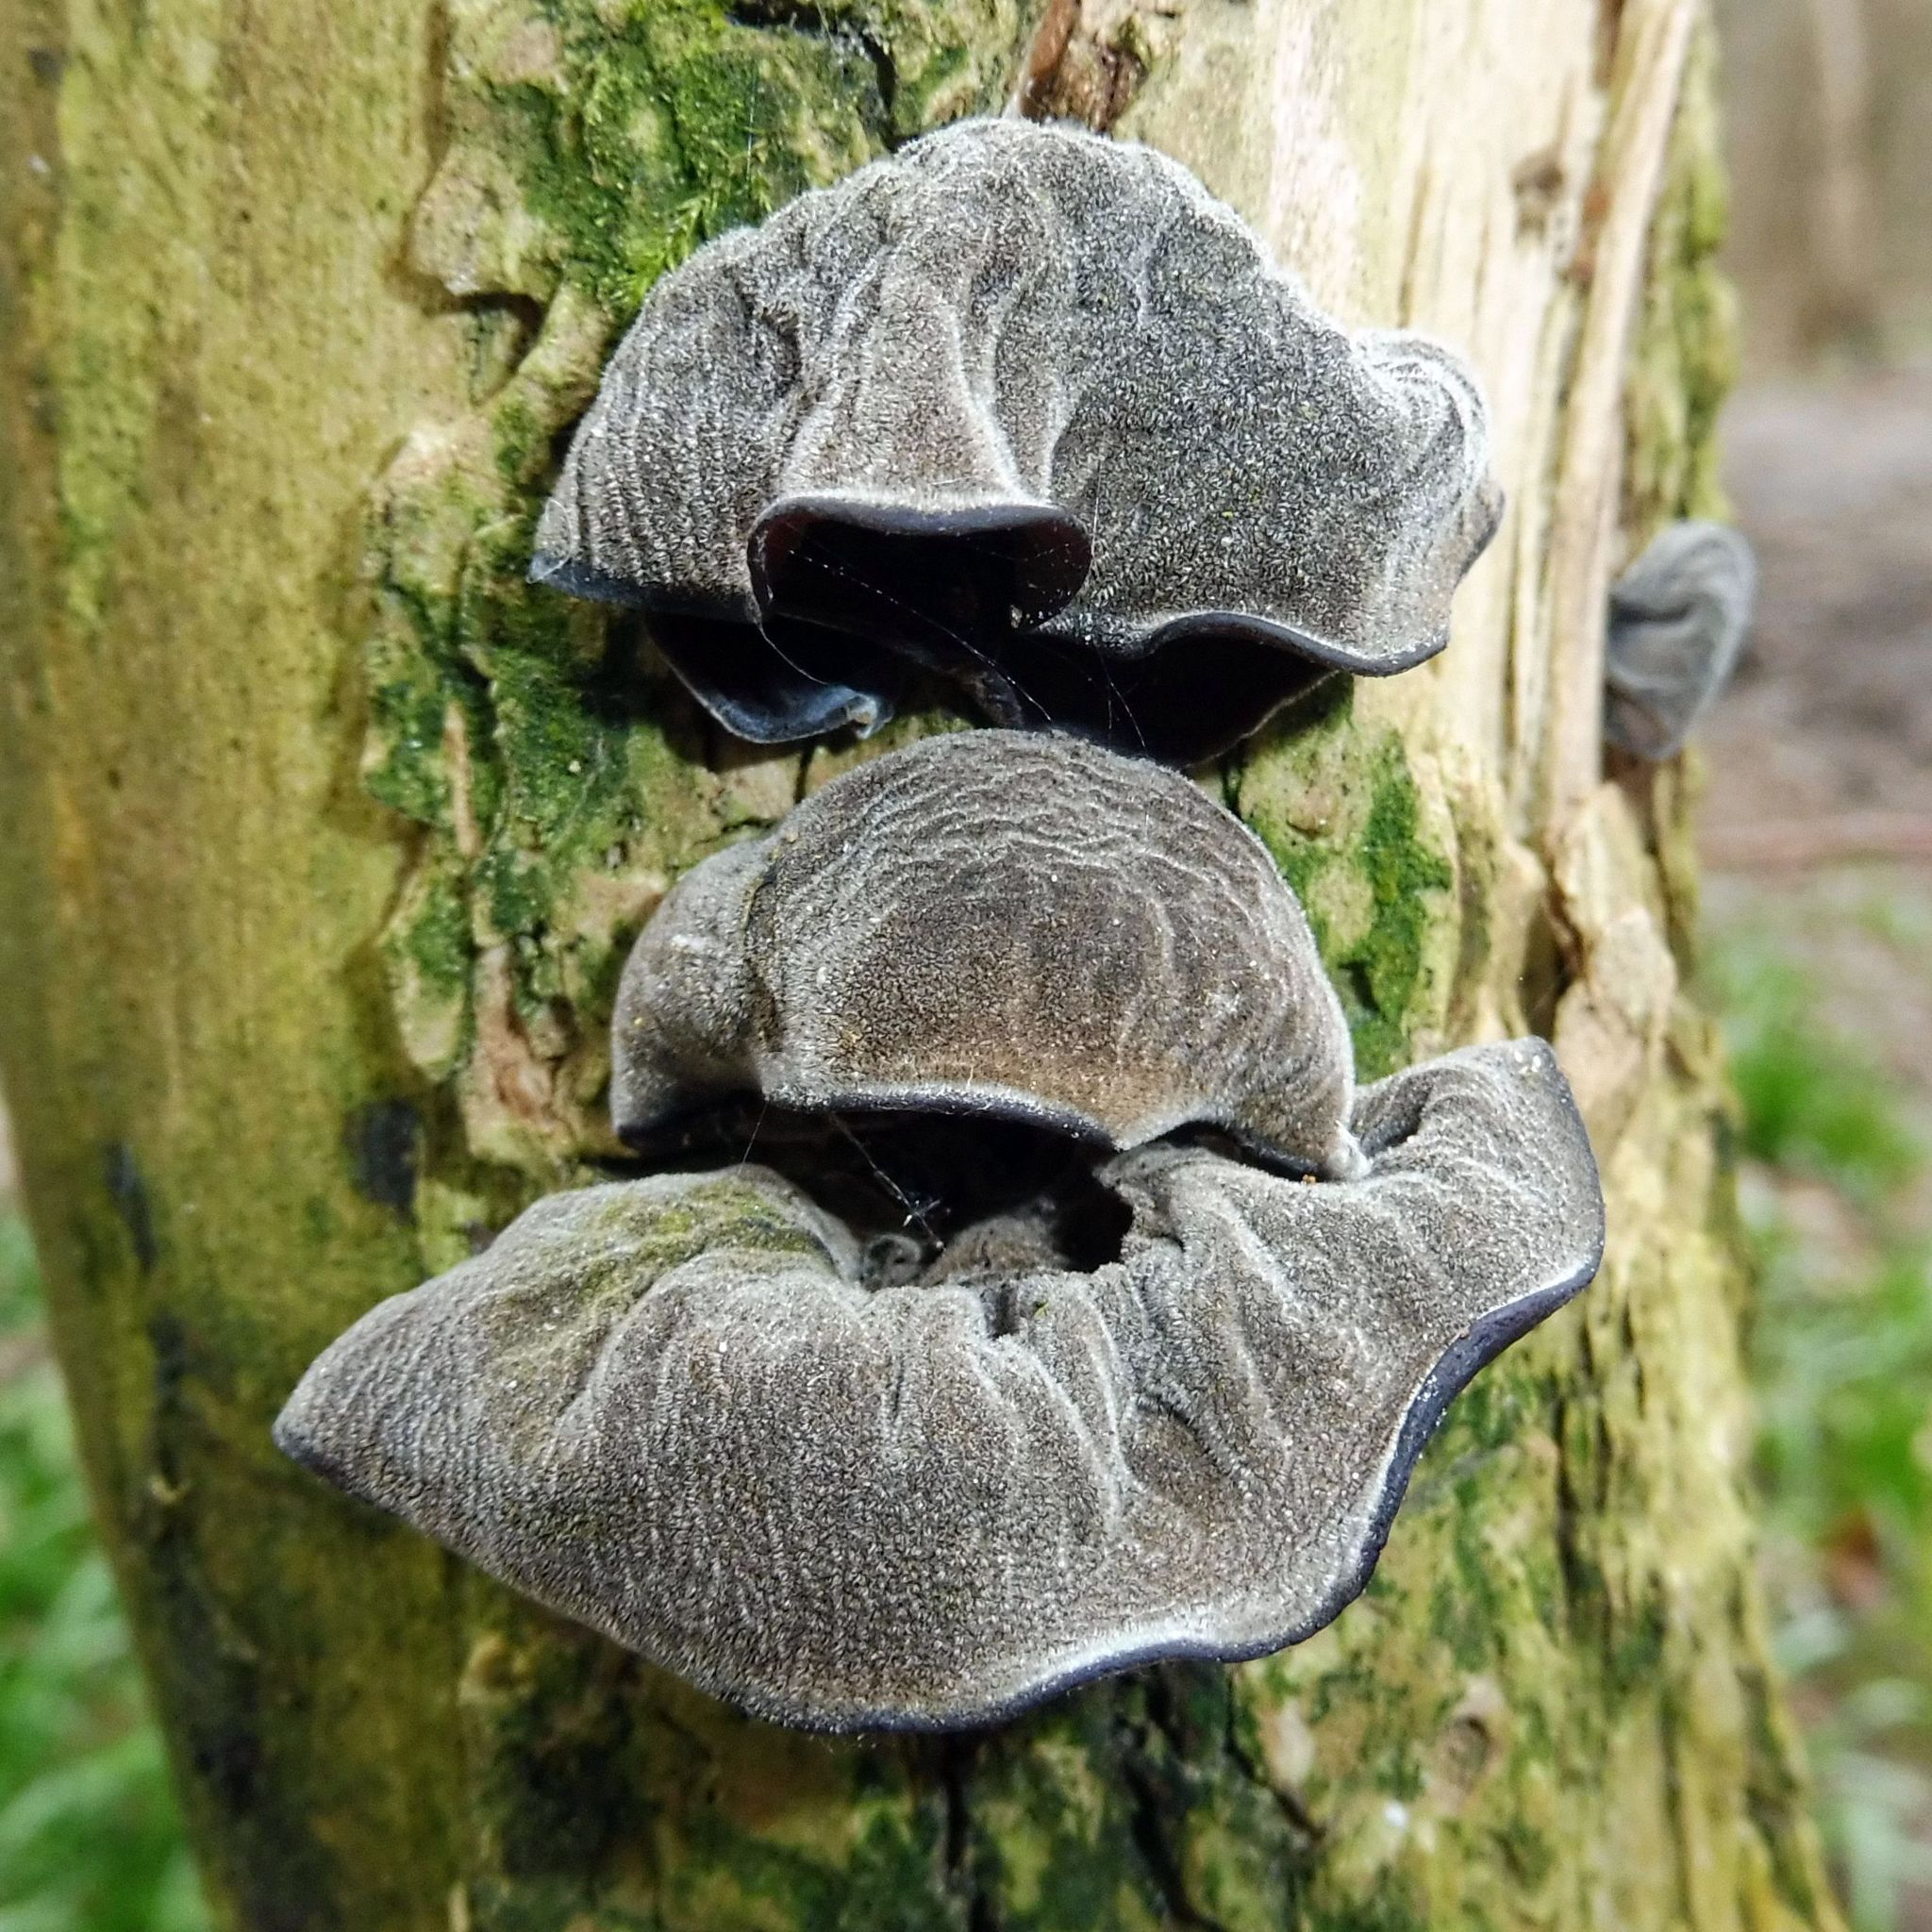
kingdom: Fungi
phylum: Basidiomycota
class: Agaricomycetes
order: Auriculariales
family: Auriculariaceae
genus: Auricularia
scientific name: Auricularia auricula-judae
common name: Jelly ear
